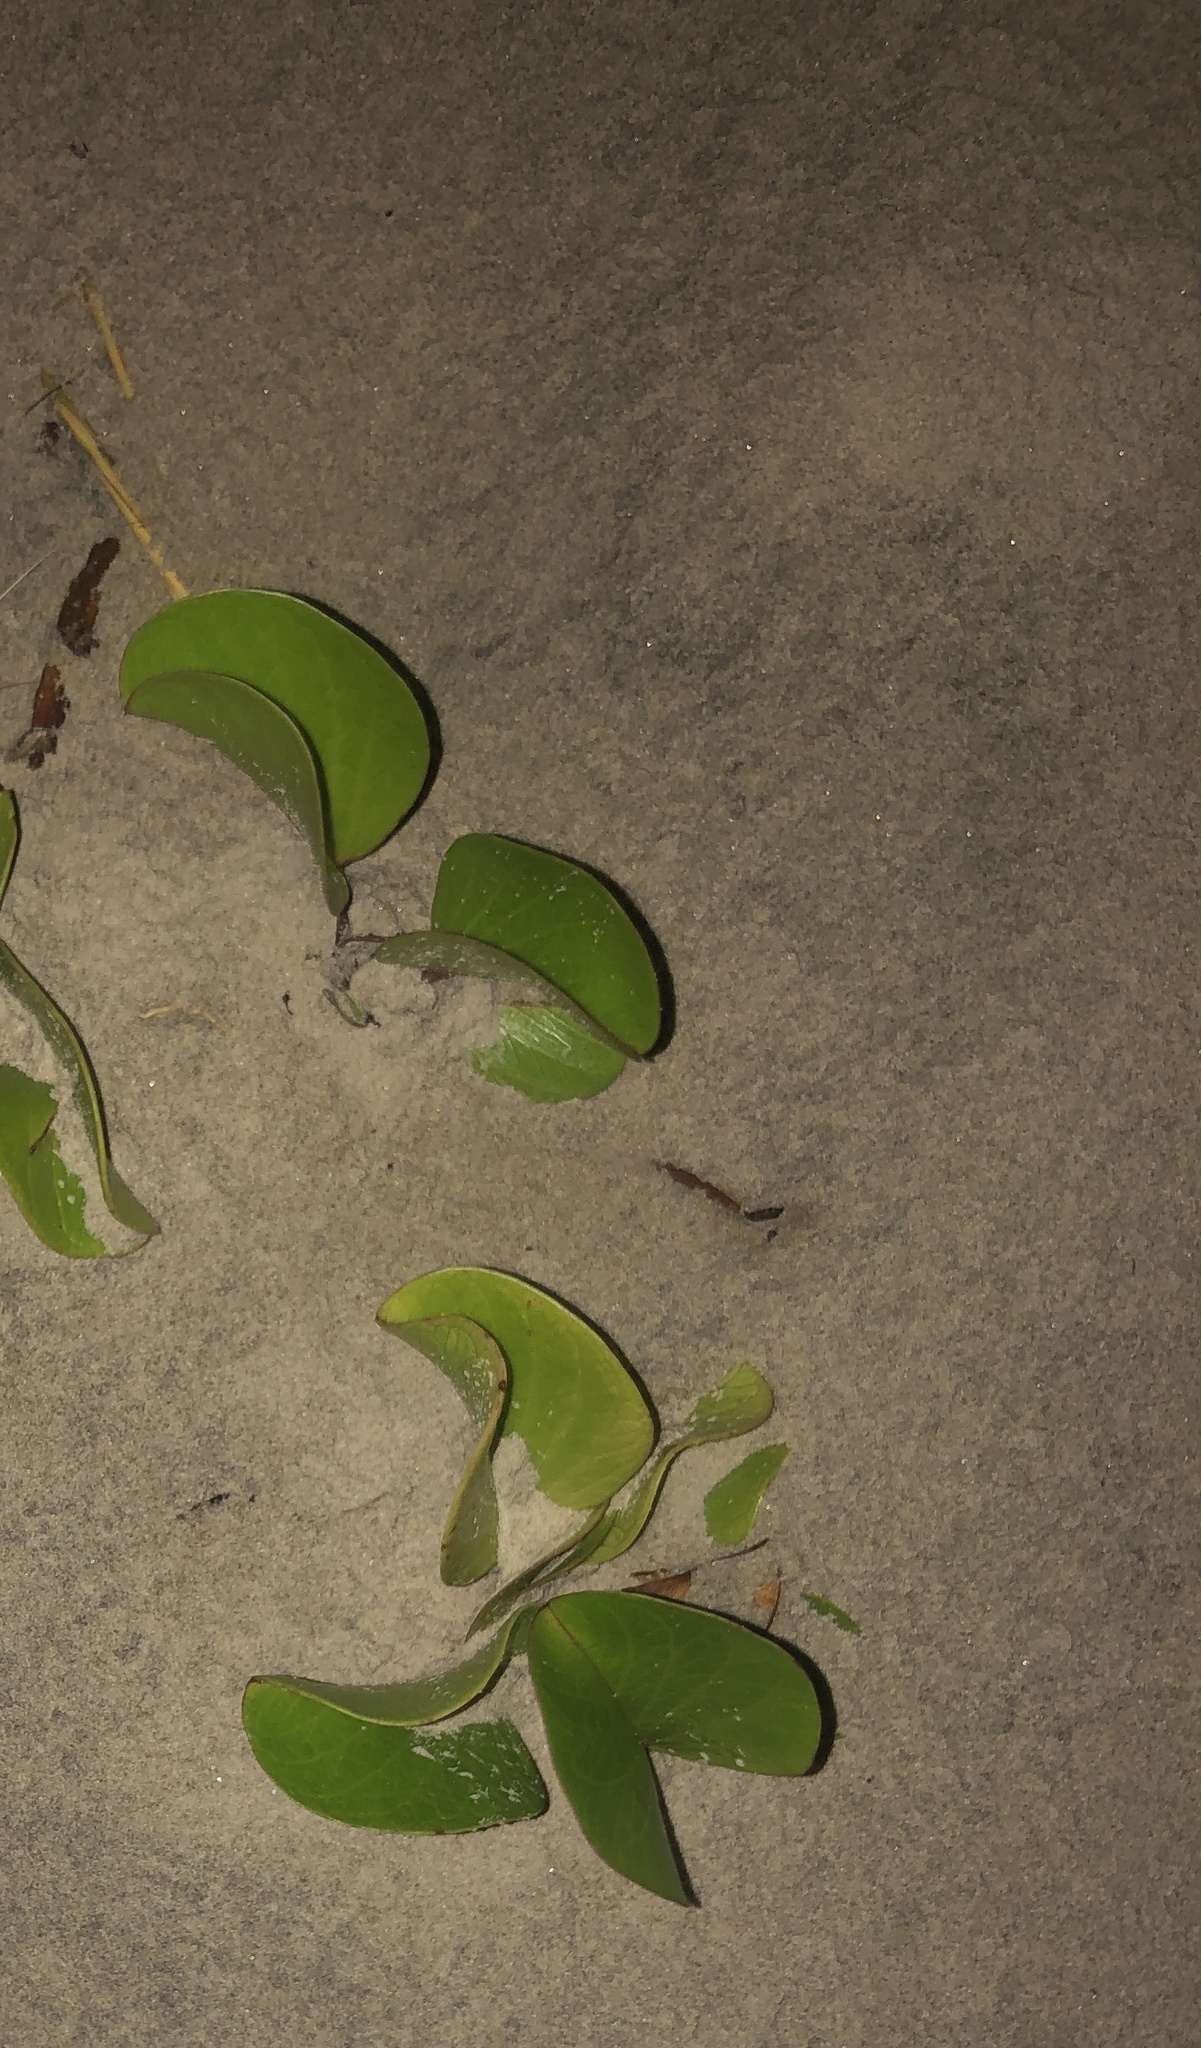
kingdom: Plantae
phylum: Tracheophyta
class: Magnoliopsida
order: Solanales
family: Convolvulaceae
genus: Ipomoea
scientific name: Ipomoea pes-caprae
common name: Beach morning glory
